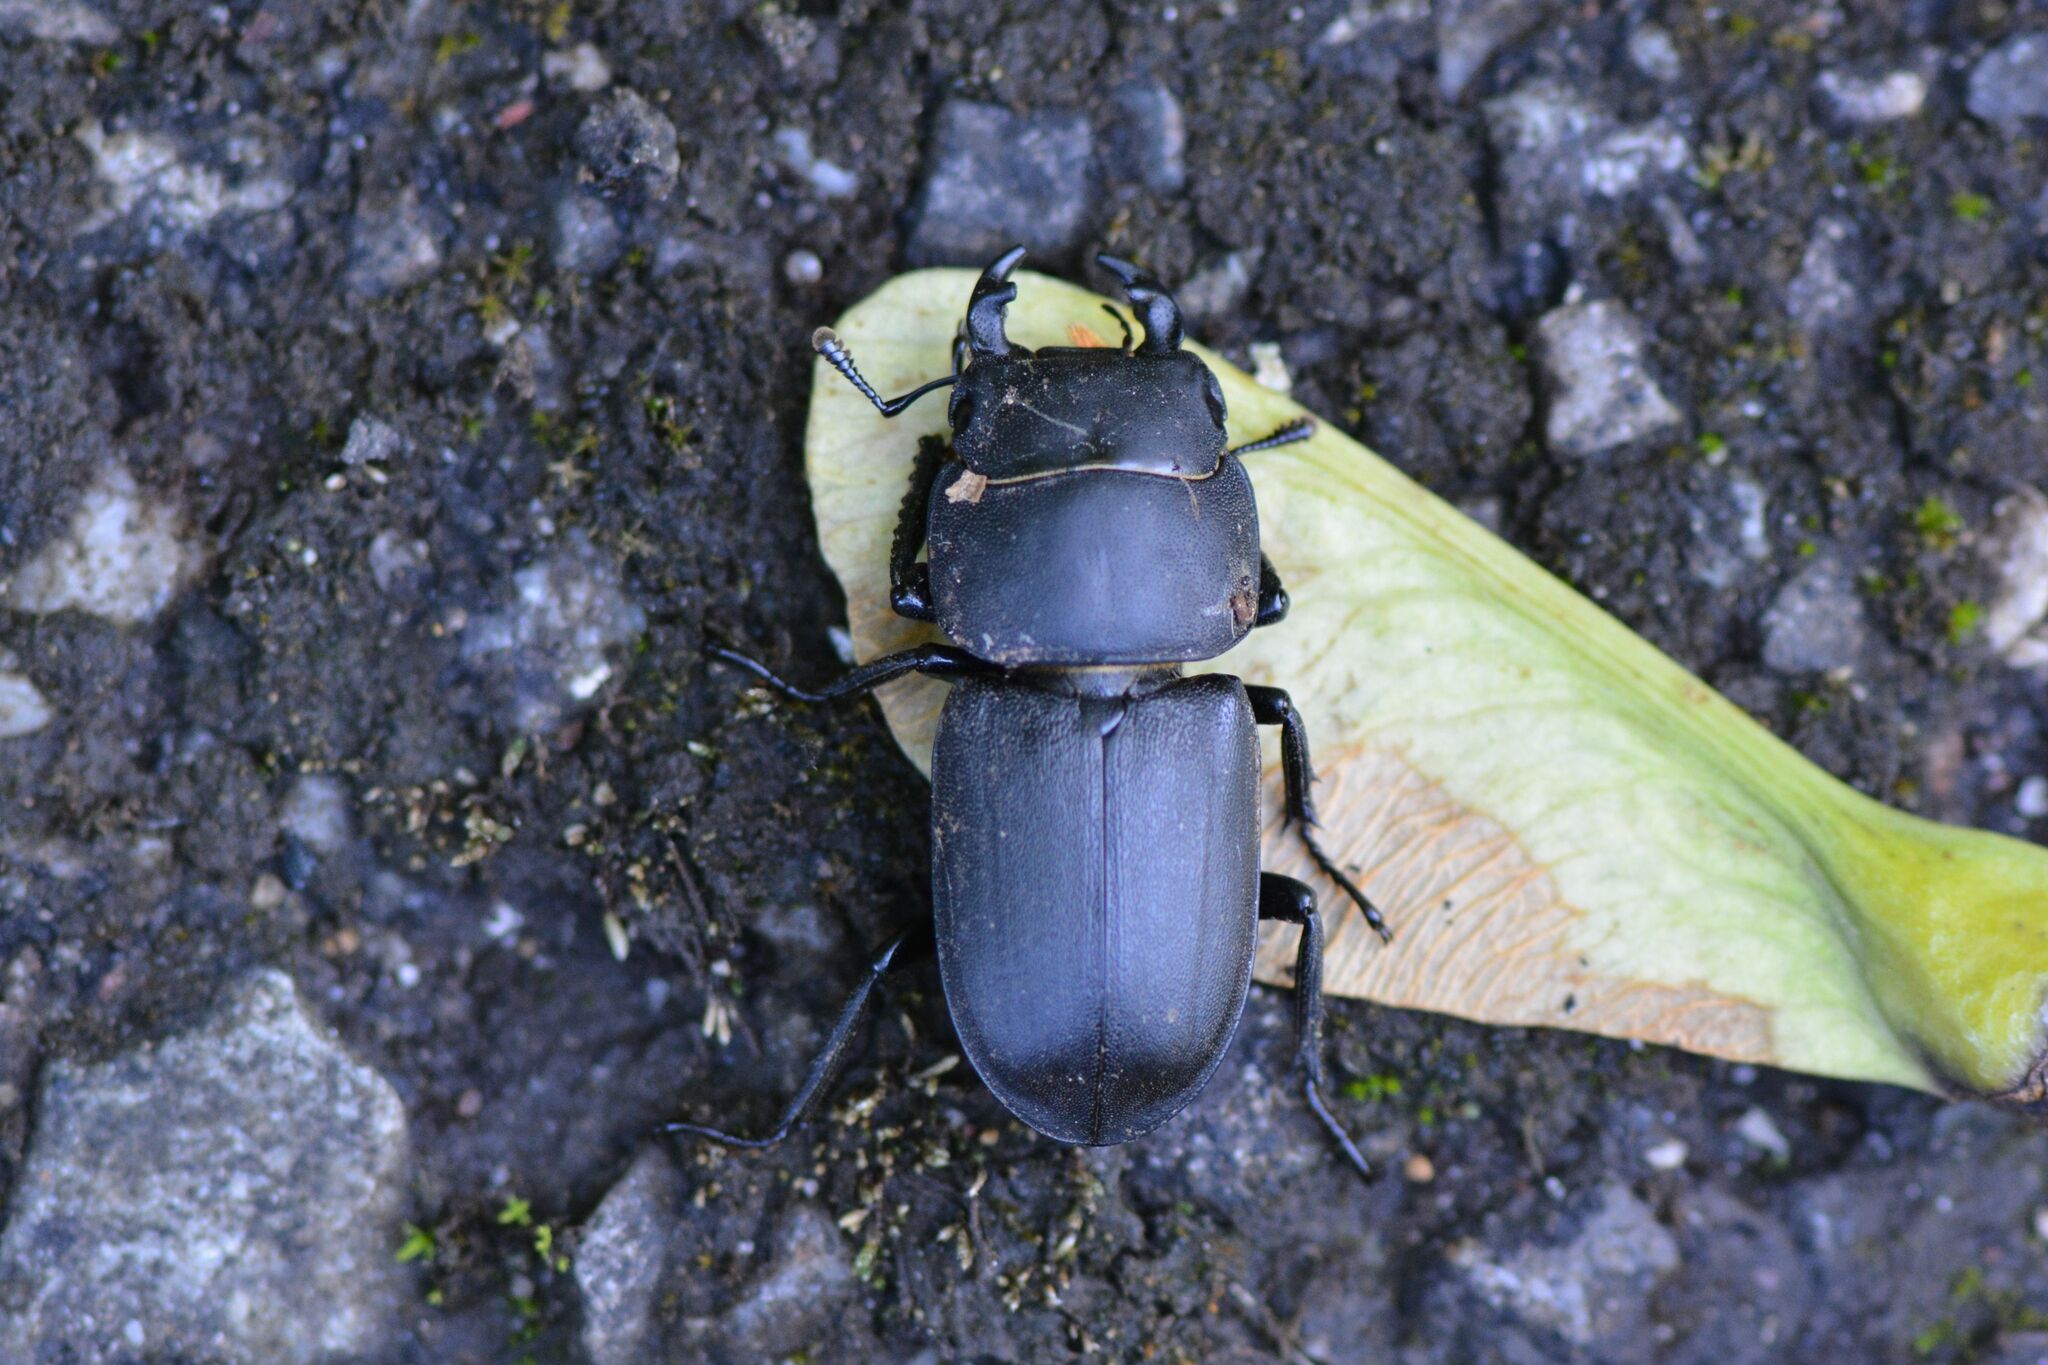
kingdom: Animalia
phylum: Arthropoda
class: Insecta
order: Coleoptera
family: Lucanidae
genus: Dorcus
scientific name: Dorcus parallelipipedus
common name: Lesser stag beetle
